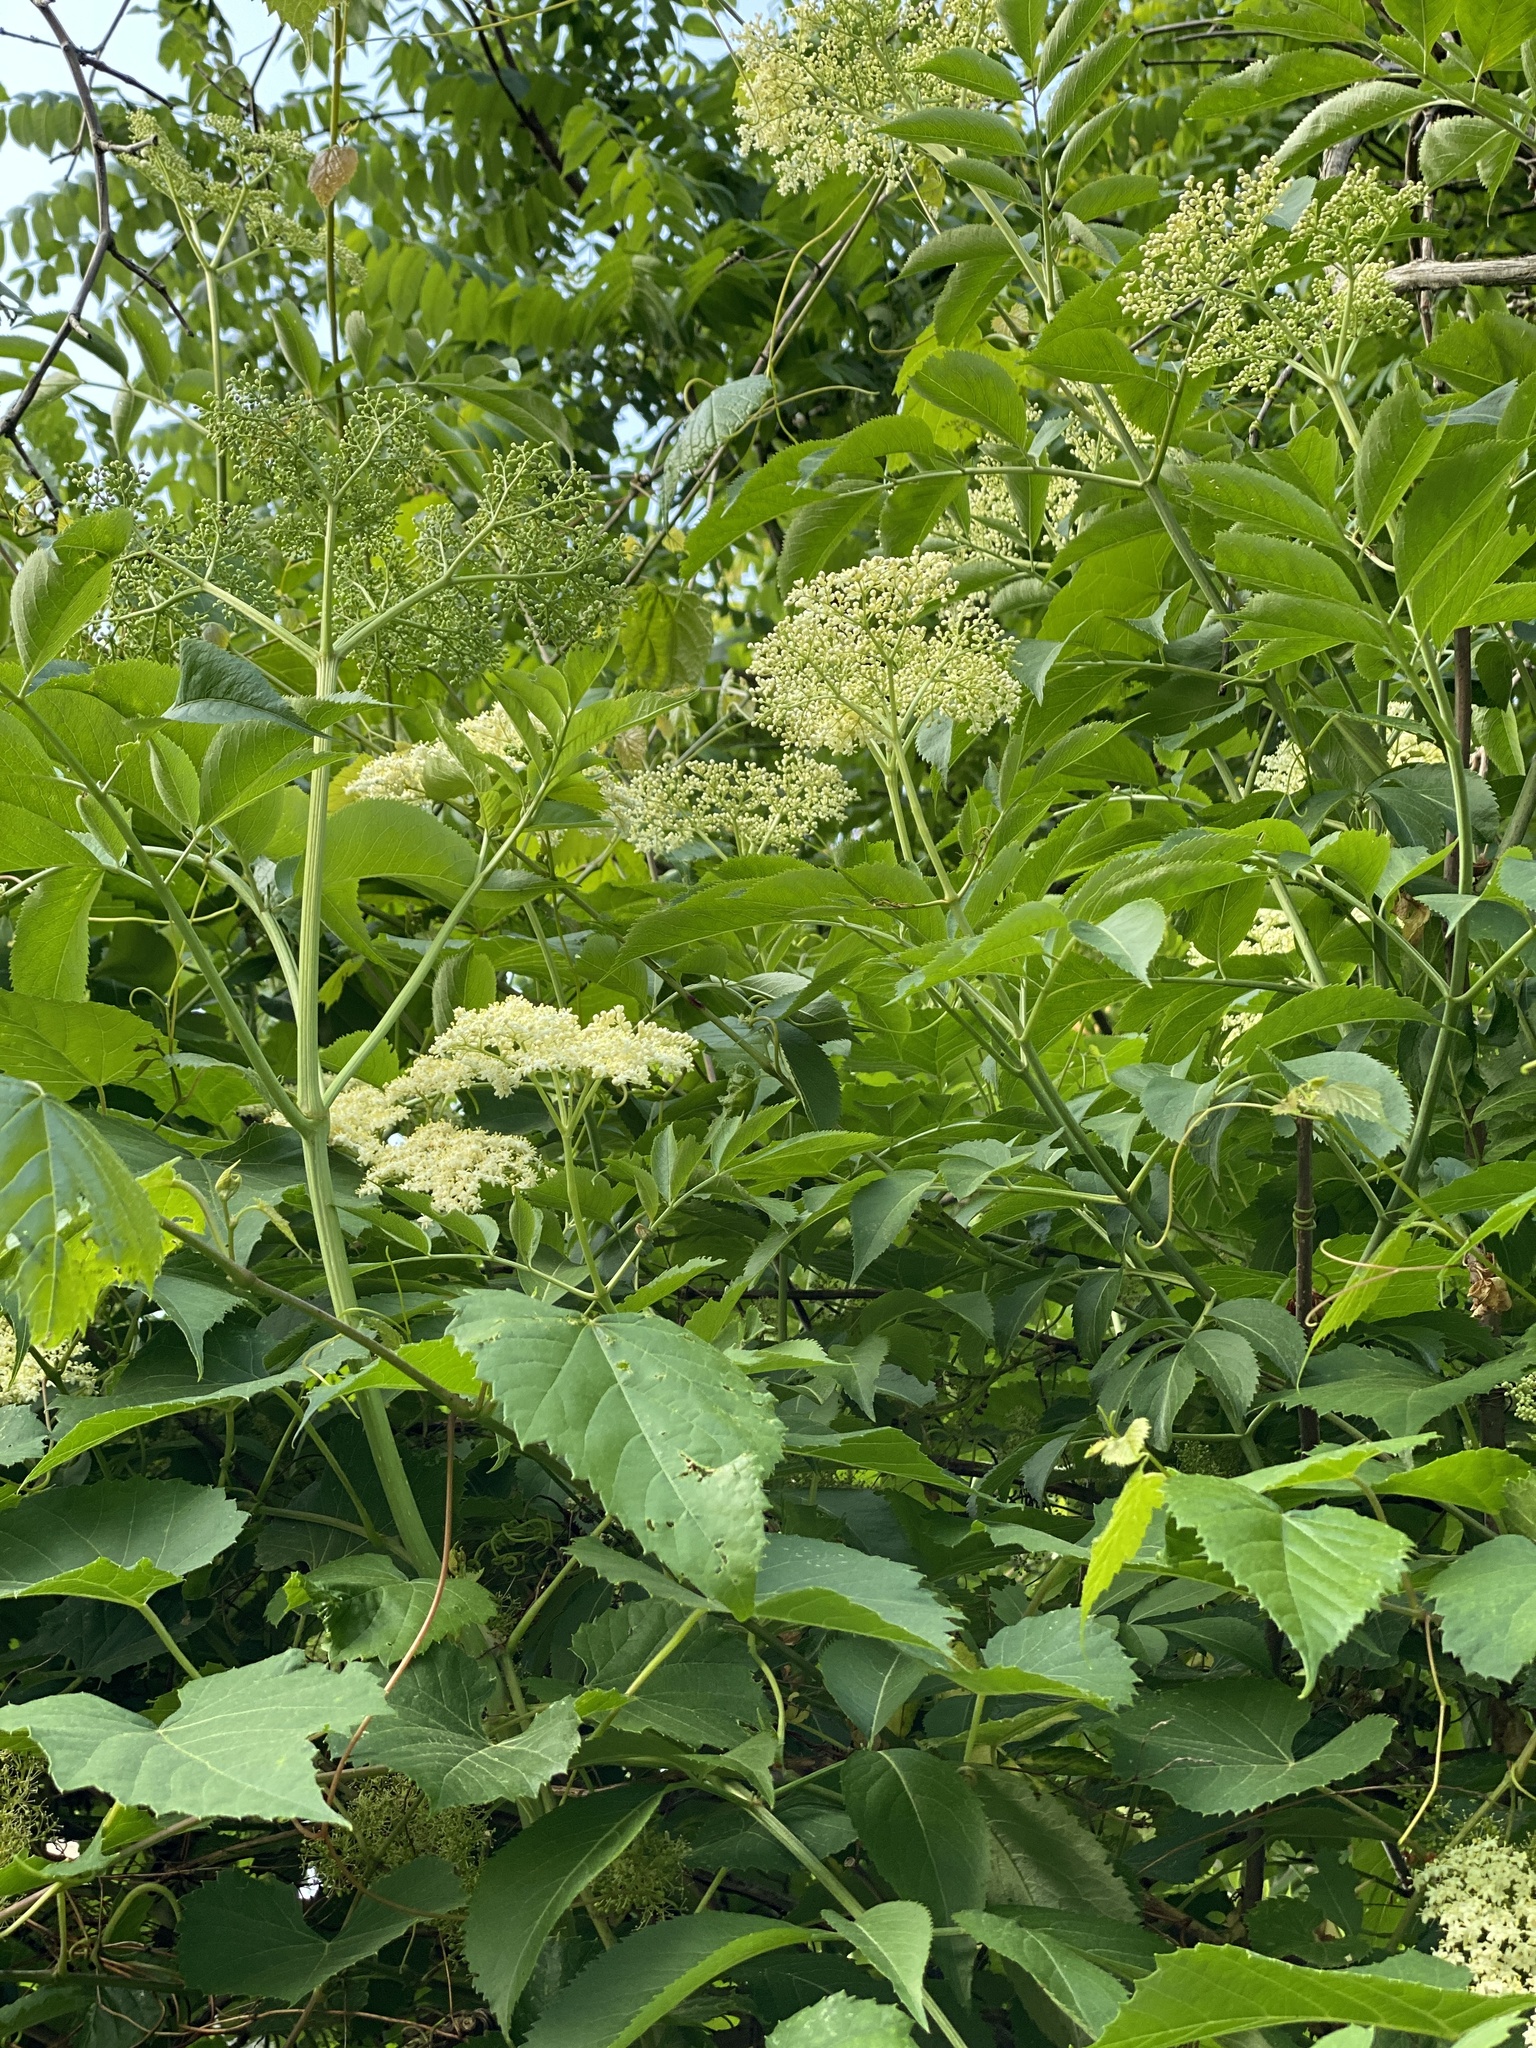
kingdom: Plantae
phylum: Tracheophyta
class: Magnoliopsida
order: Dipsacales
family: Viburnaceae
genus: Sambucus
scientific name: Sambucus canadensis
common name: American elder
